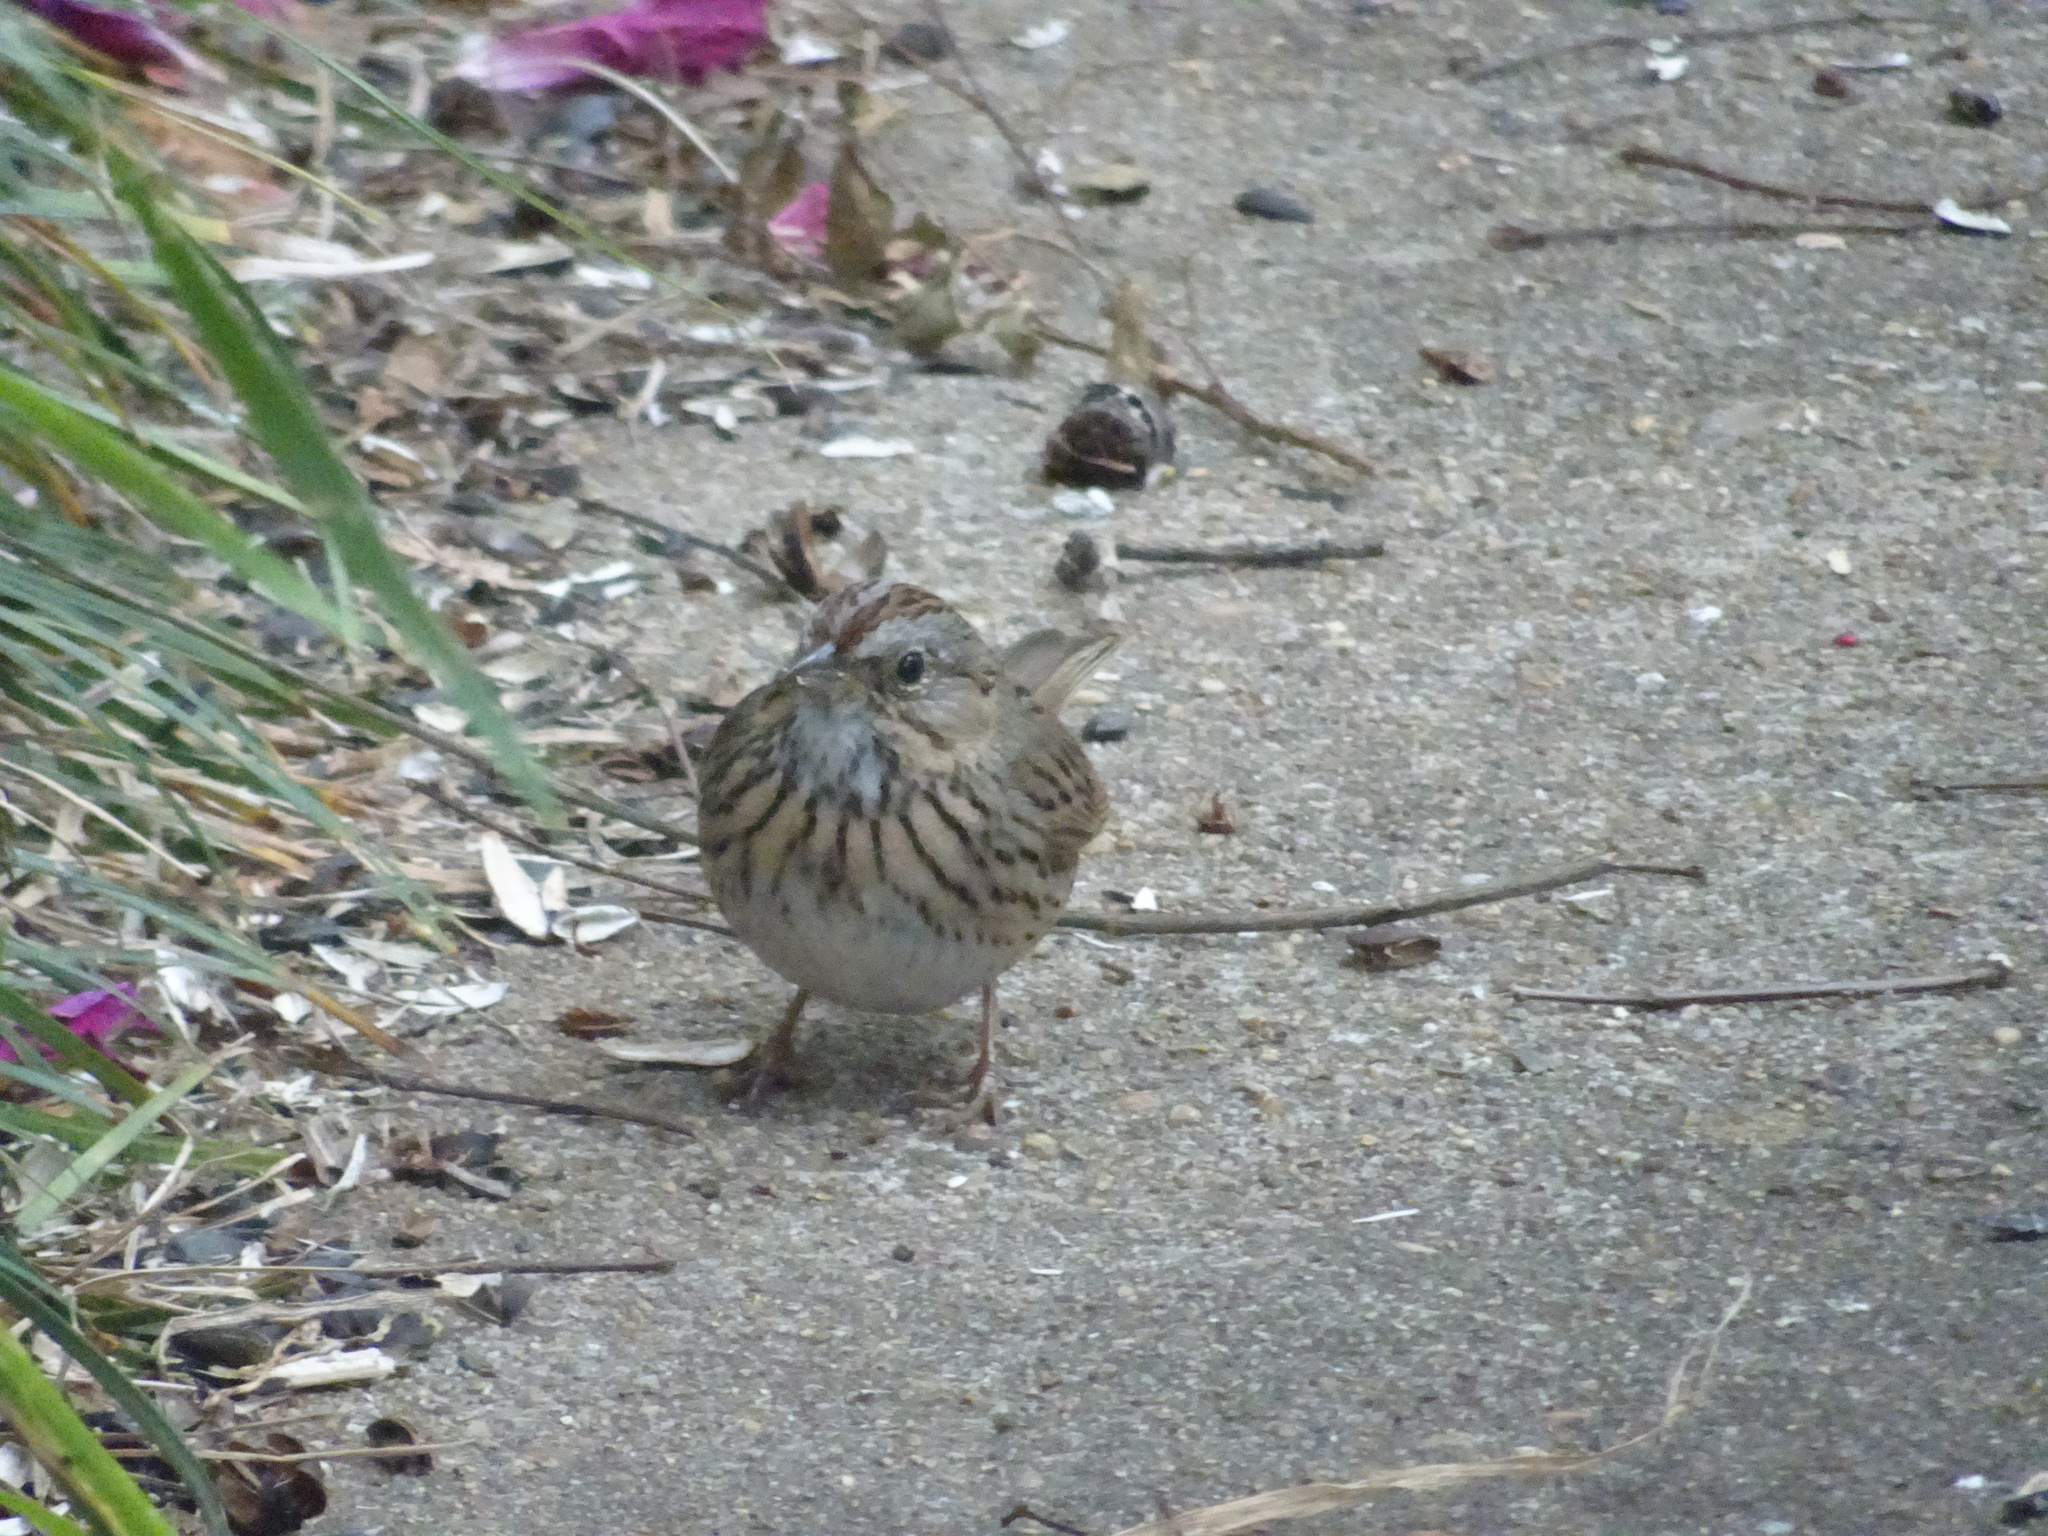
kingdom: Animalia
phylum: Chordata
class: Aves
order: Passeriformes
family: Passerellidae
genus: Melospiza
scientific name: Melospiza lincolnii
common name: Lincoln's sparrow
